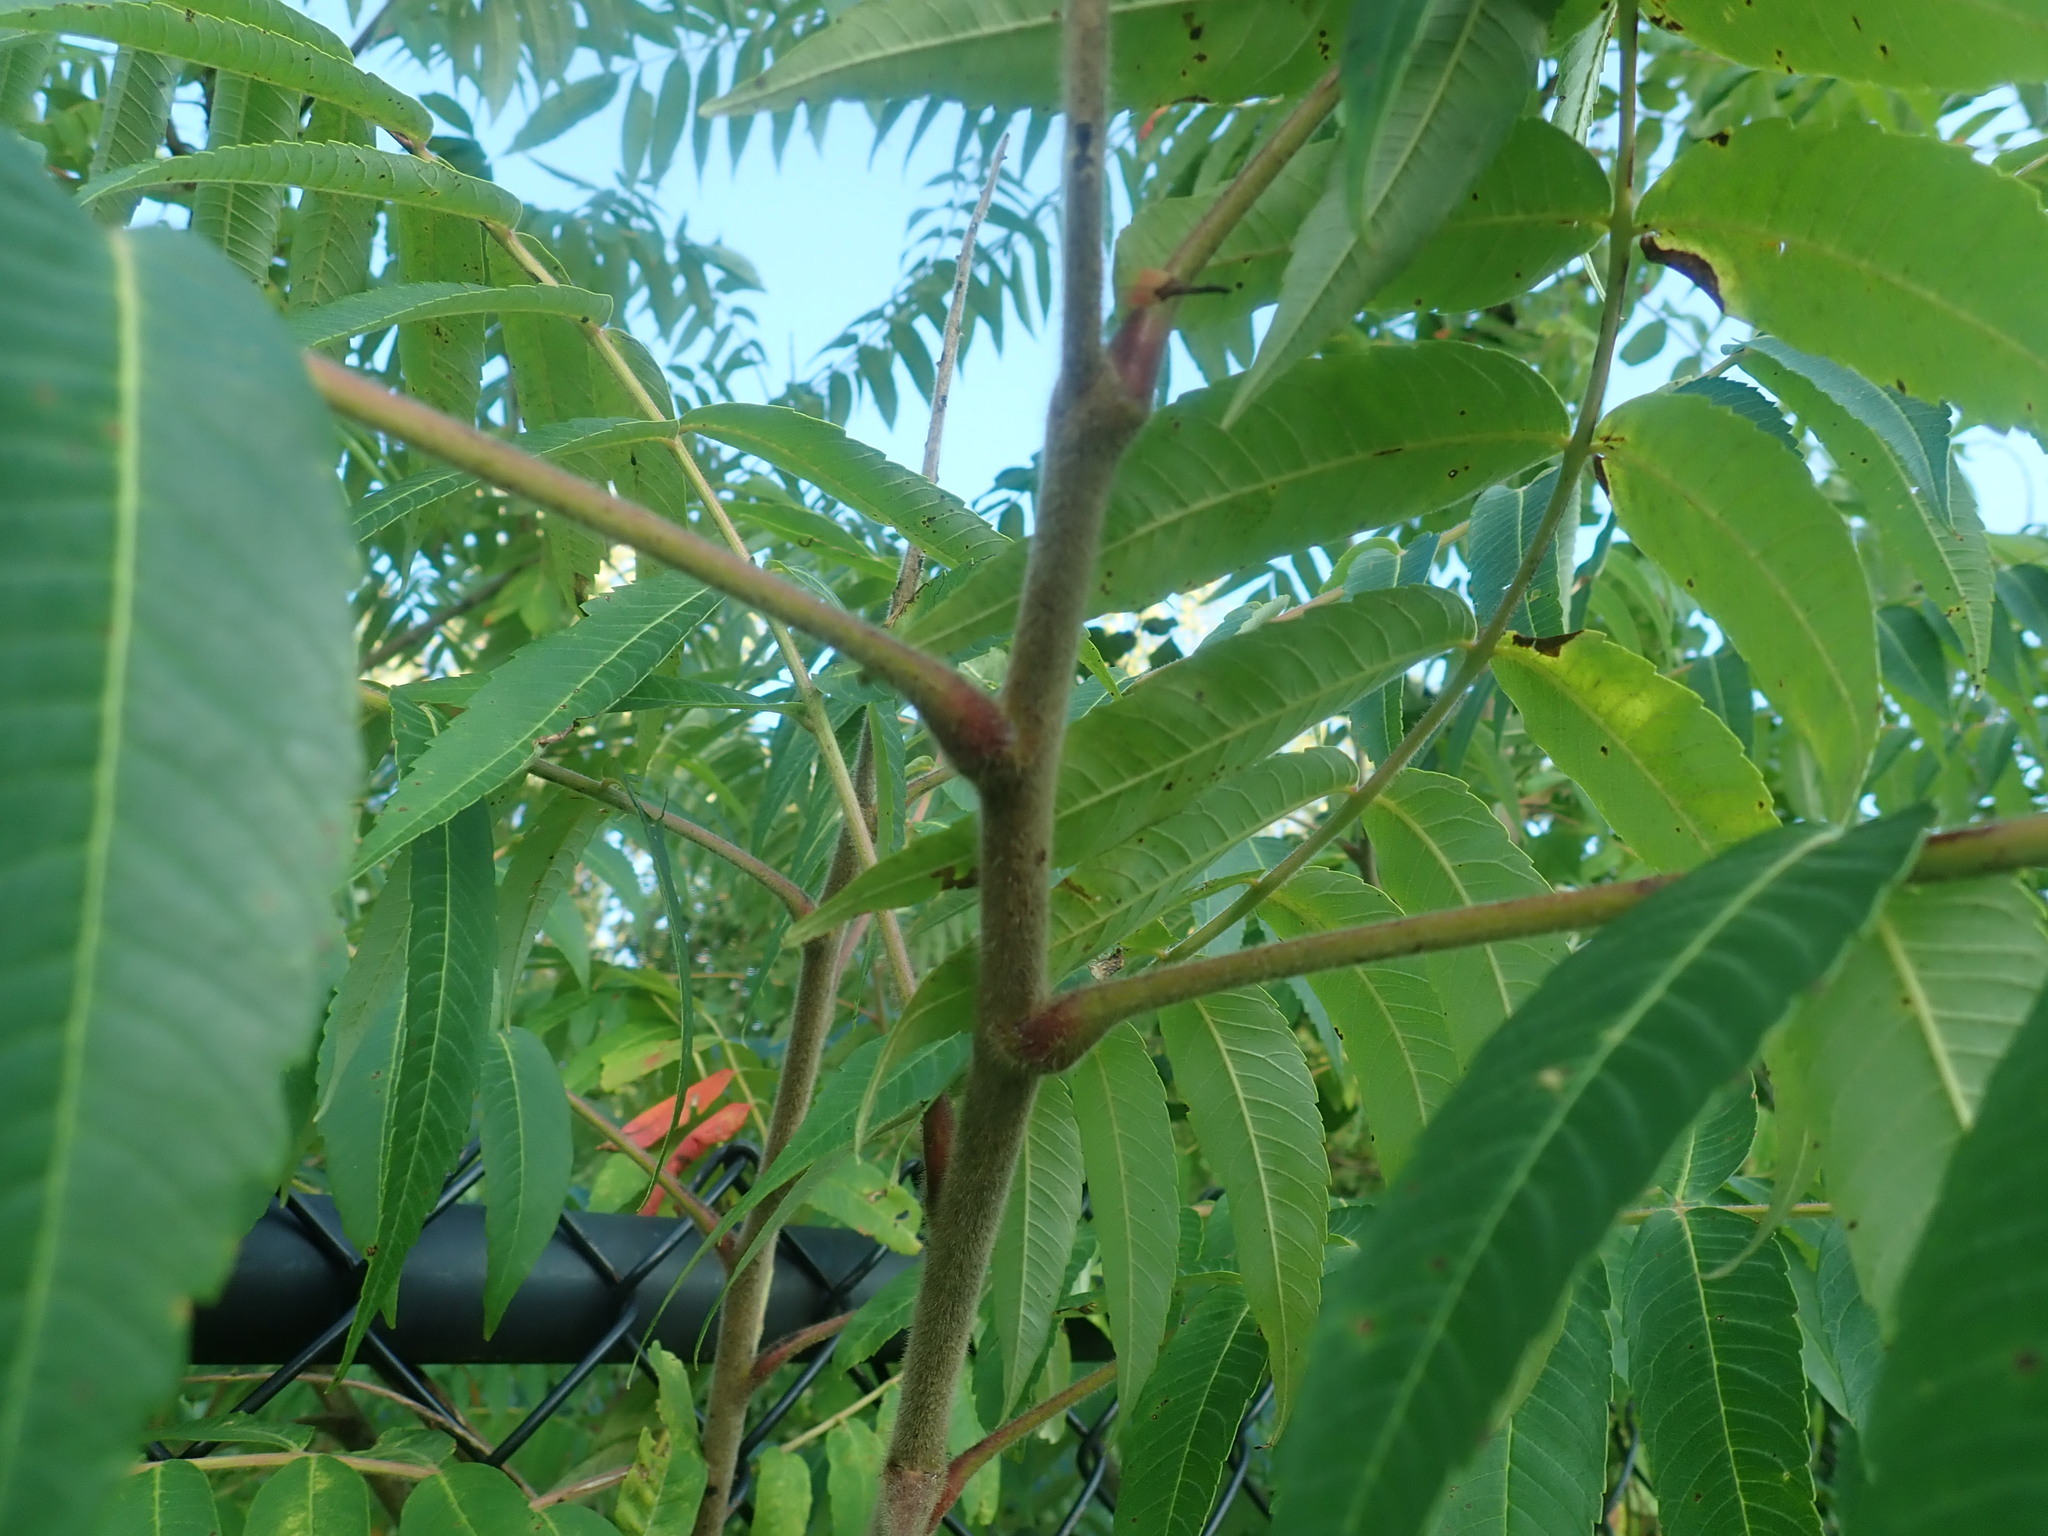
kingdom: Plantae
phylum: Tracheophyta
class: Magnoliopsida
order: Sapindales
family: Anacardiaceae
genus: Rhus
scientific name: Rhus typhina
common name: Staghorn sumac
